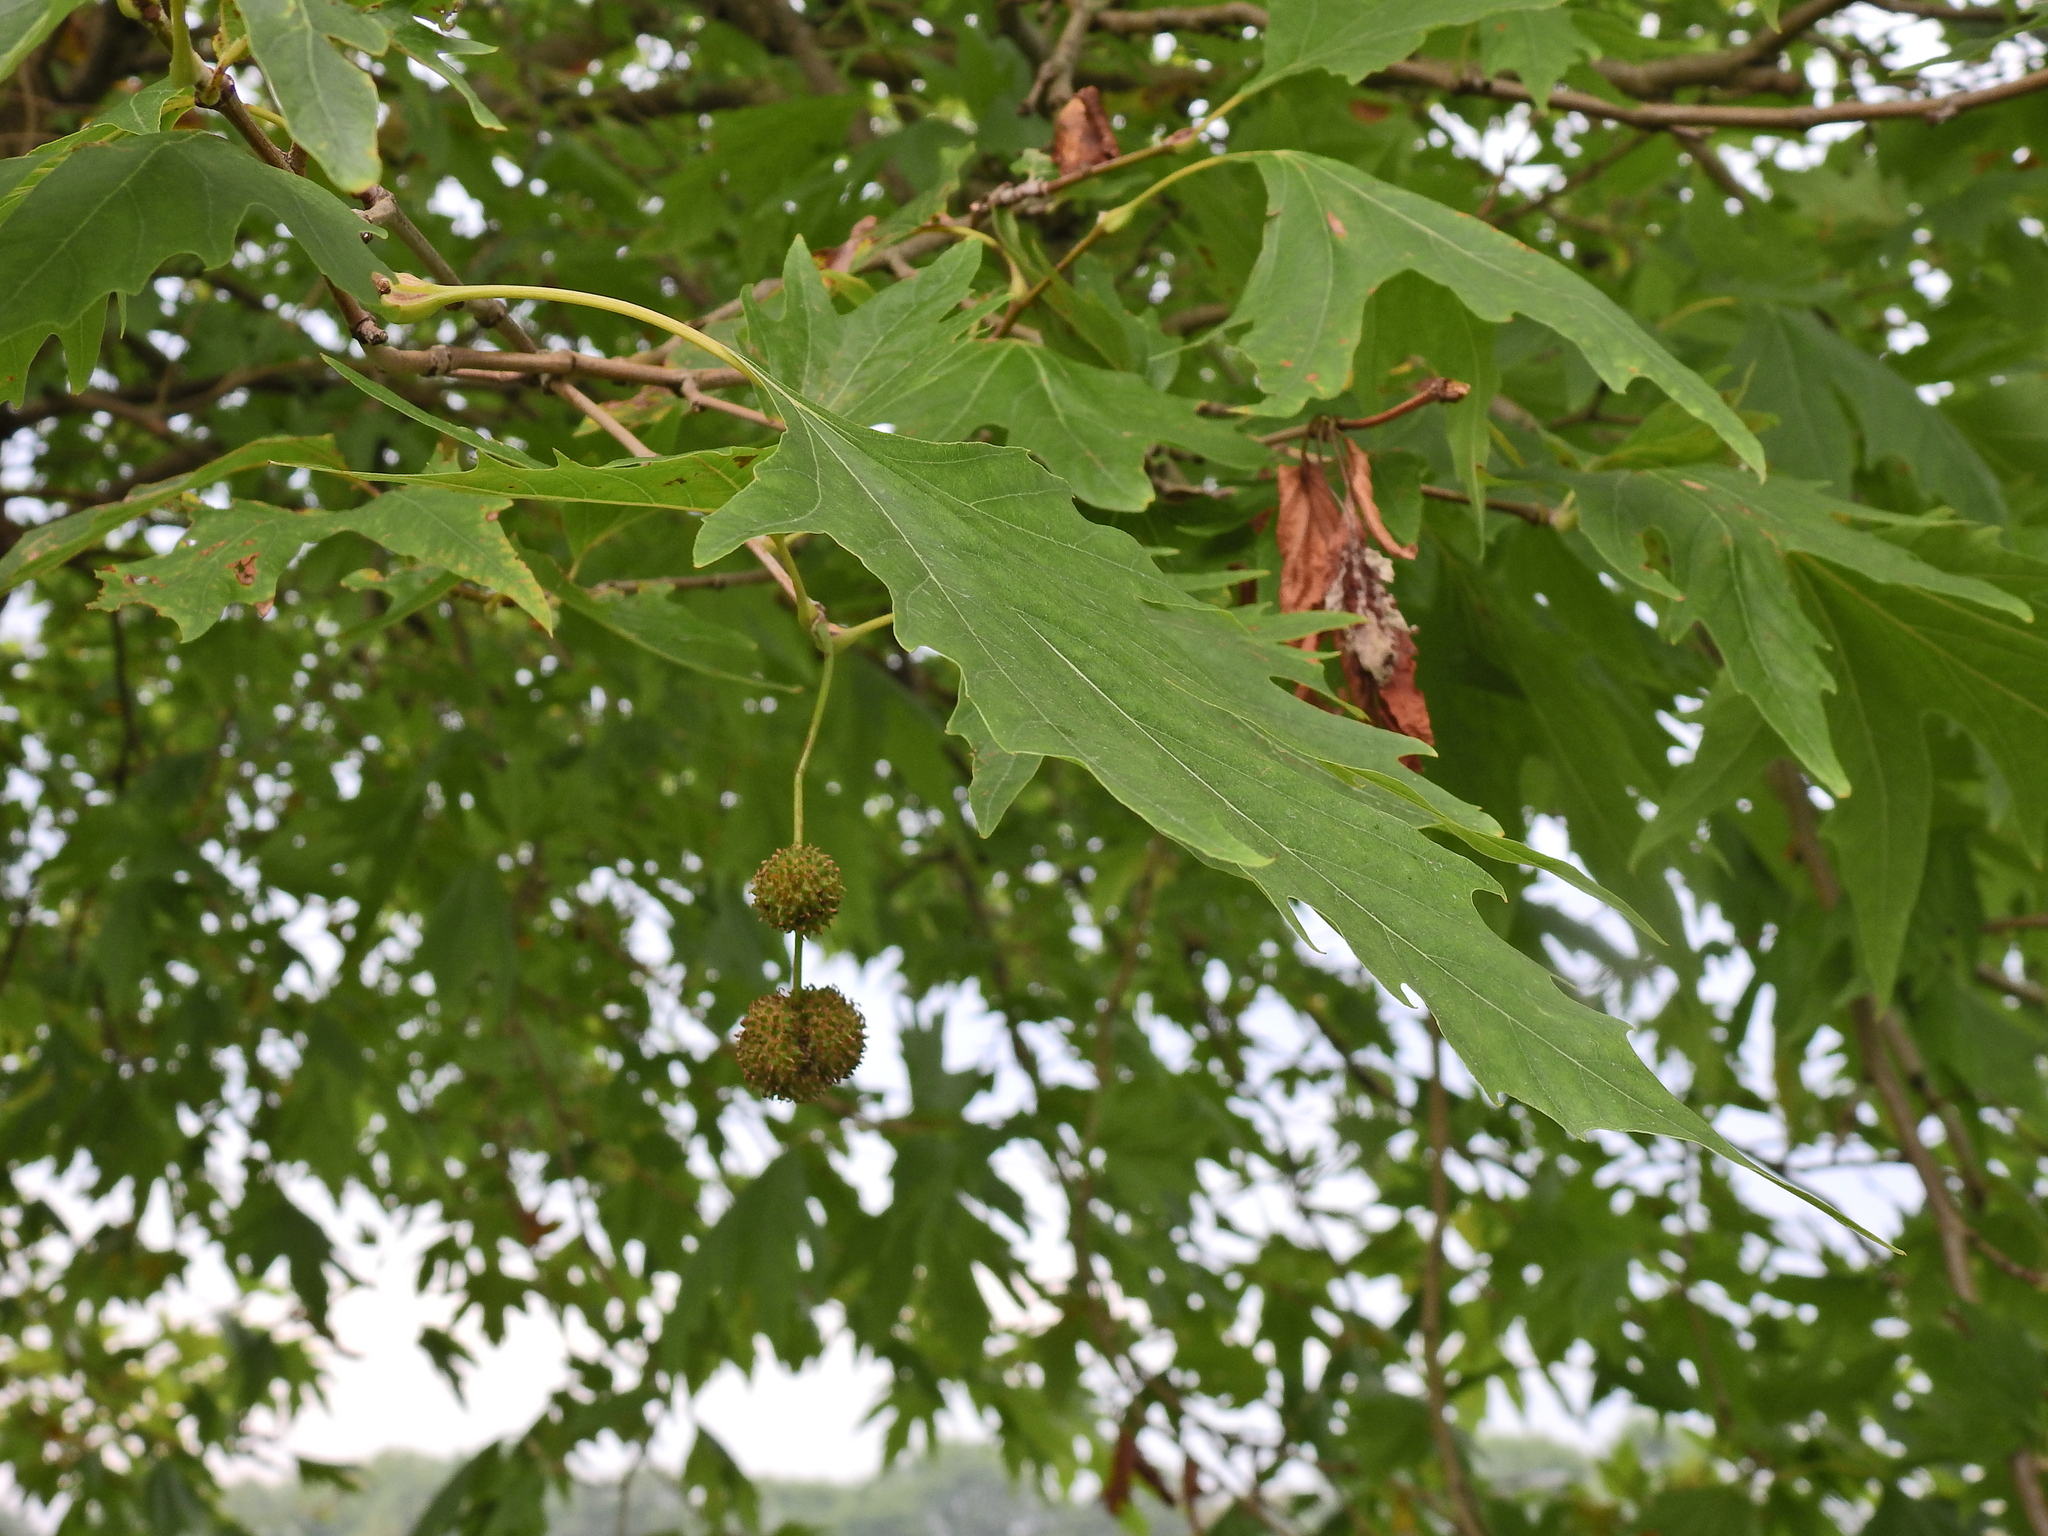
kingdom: Plantae
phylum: Tracheophyta
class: Magnoliopsida
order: Proteales
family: Platanaceae
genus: Platanus
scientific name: Platanus orientalis
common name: Oriental plane
